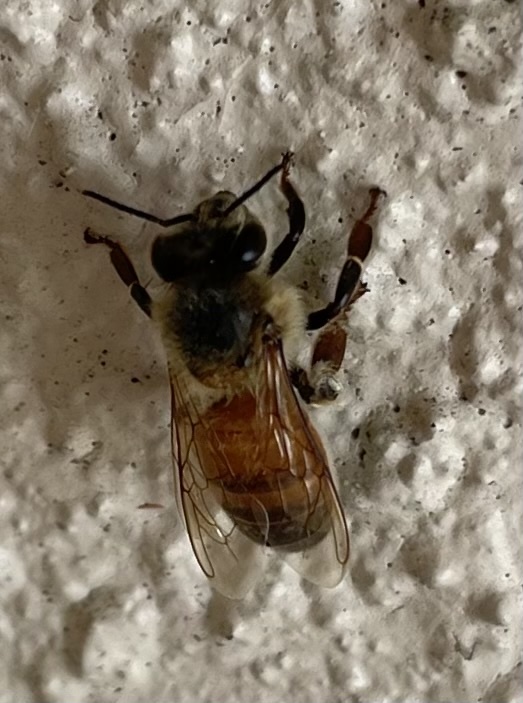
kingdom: Animalia
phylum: Arthropoda
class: Insecta
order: Hymenoptera
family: Apidae
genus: Apis
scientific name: Apis mellifera
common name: Honey bee
